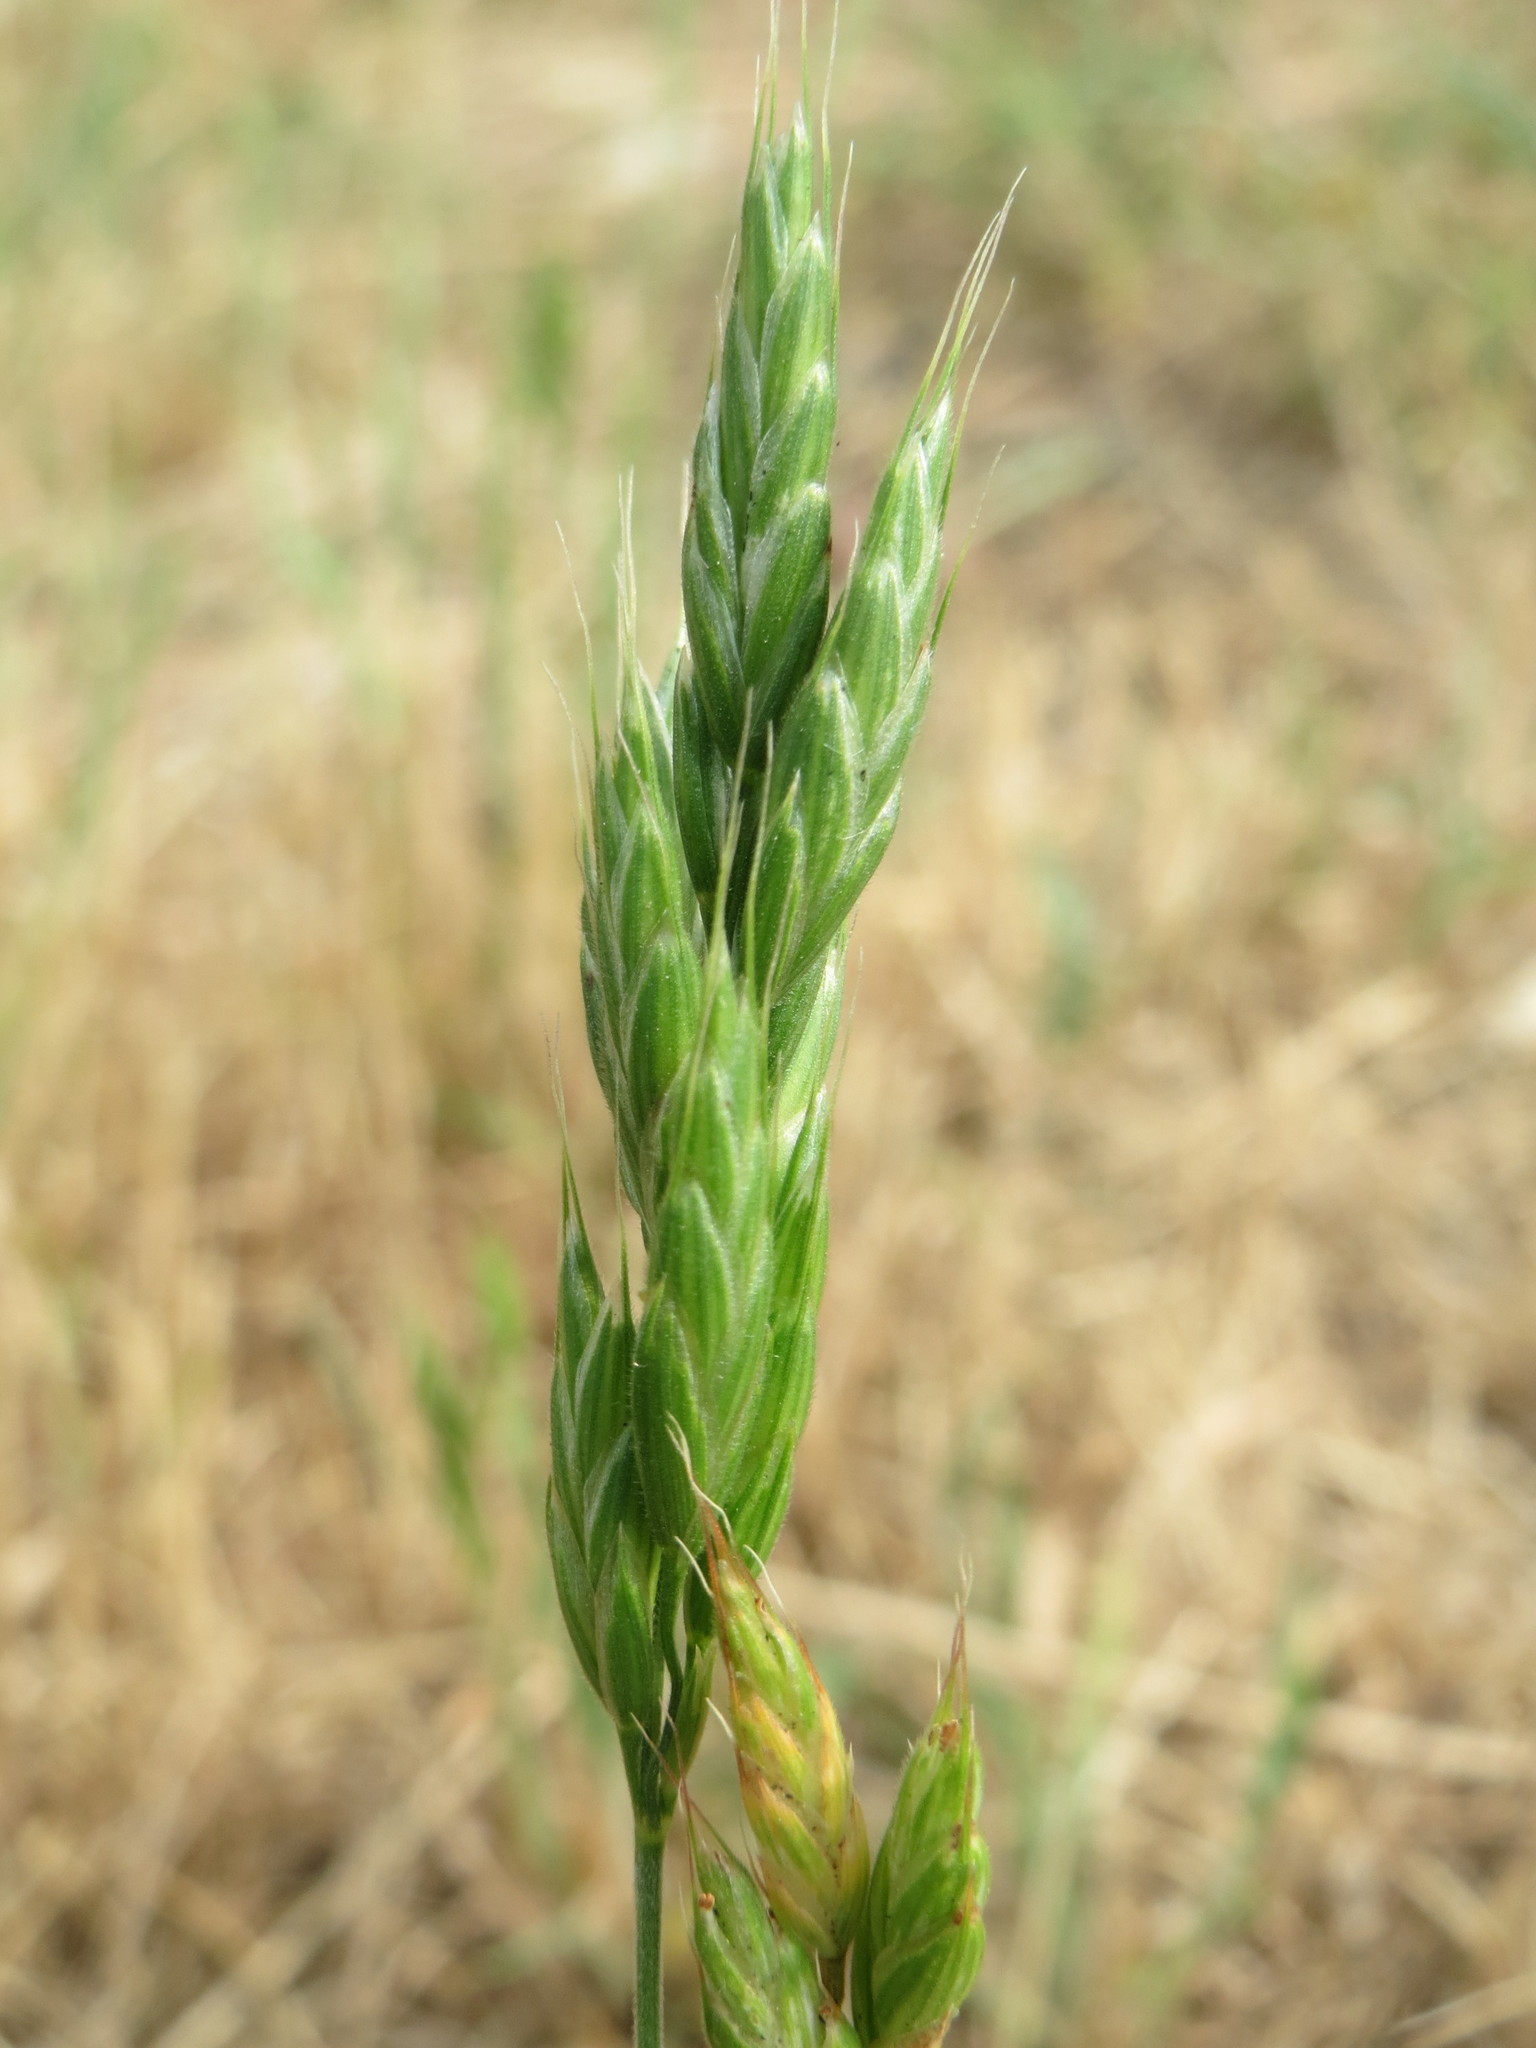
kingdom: Plantae
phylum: Tracheophyta
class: Liliopsida
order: Poales
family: Poaceae
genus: Bromus
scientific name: Bromus hordeaceus
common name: Soft brome
